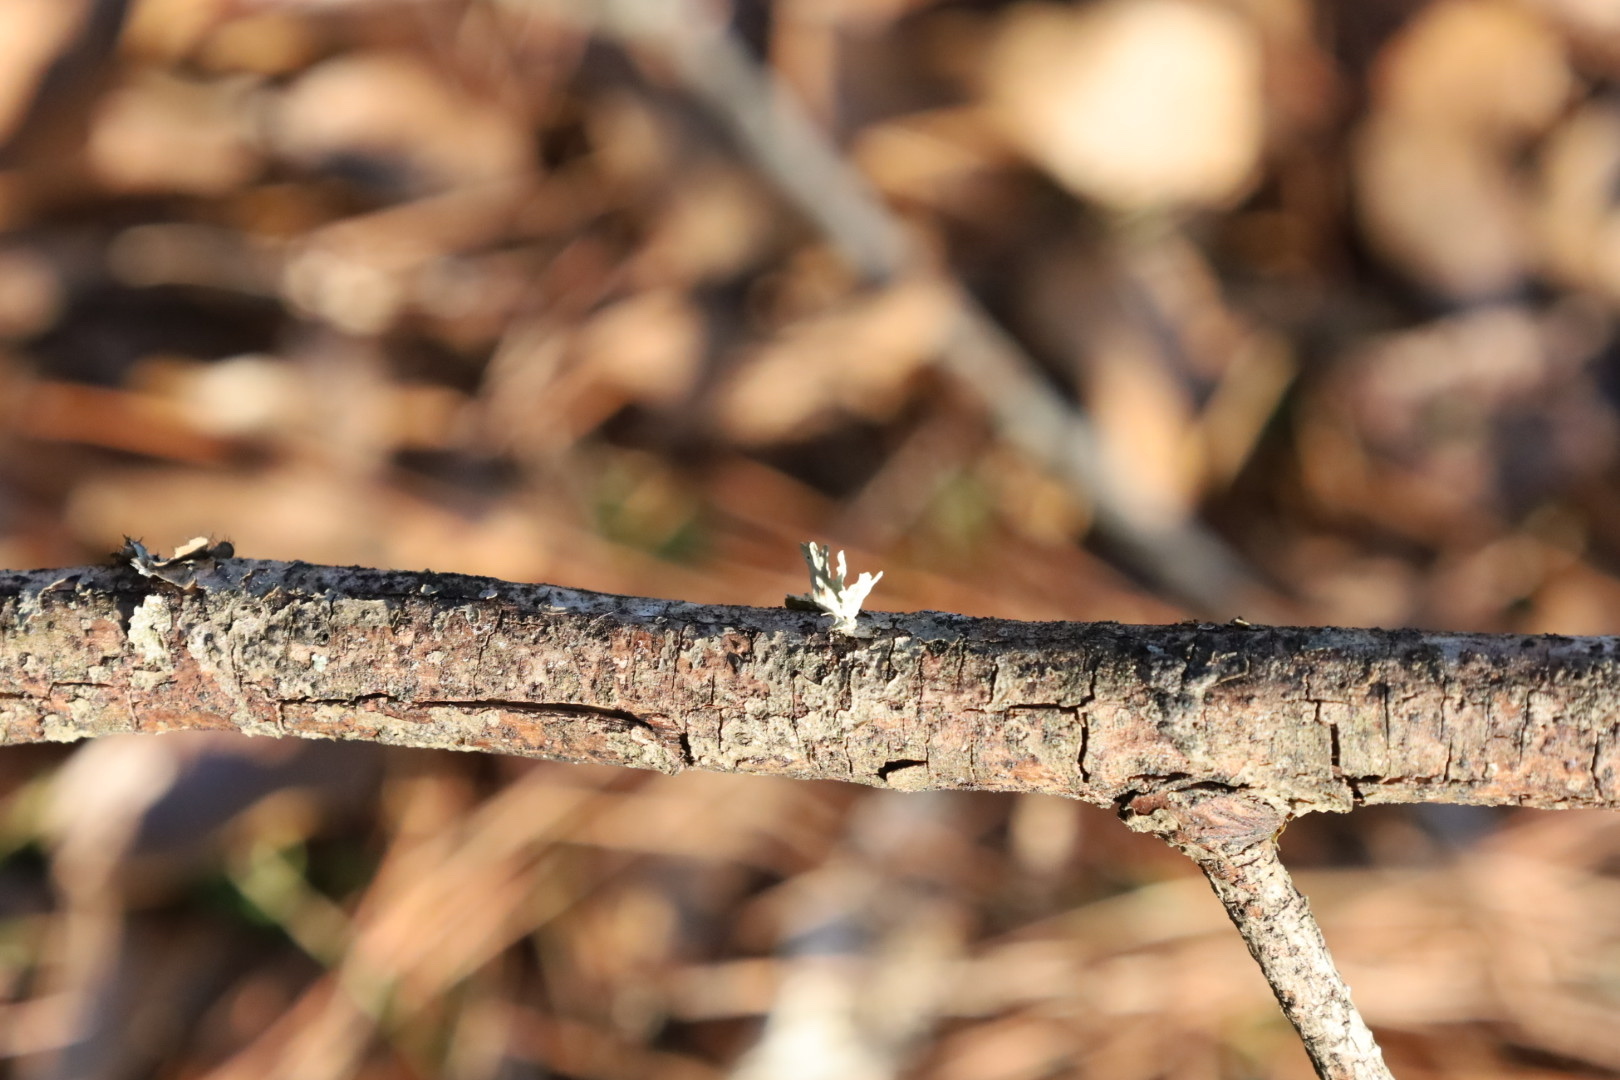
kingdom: Fungi
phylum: Ascomycota
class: Lecanoromycetes
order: Lecanorales
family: Ramalinaceae
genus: Ramalina
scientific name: Ramalina
